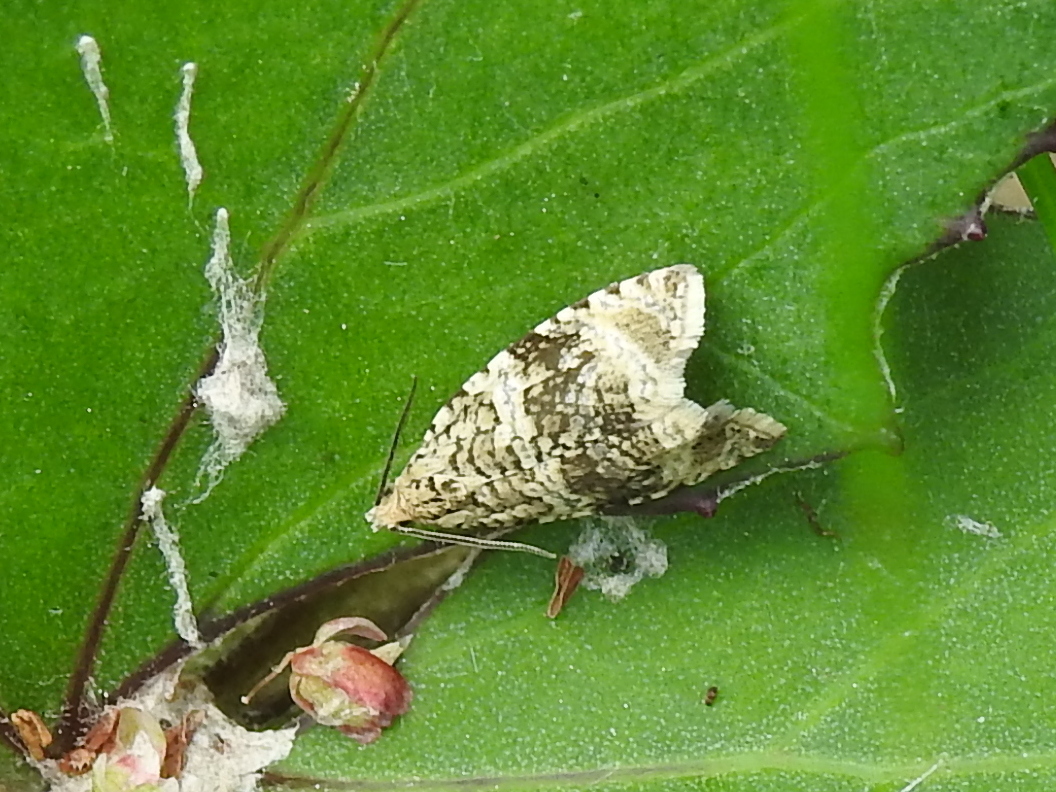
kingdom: Animalia
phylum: Arthropoda
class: Insecta
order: Lepidoptera
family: Tortricidae
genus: Syricoris
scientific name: Syricoris lacunana
